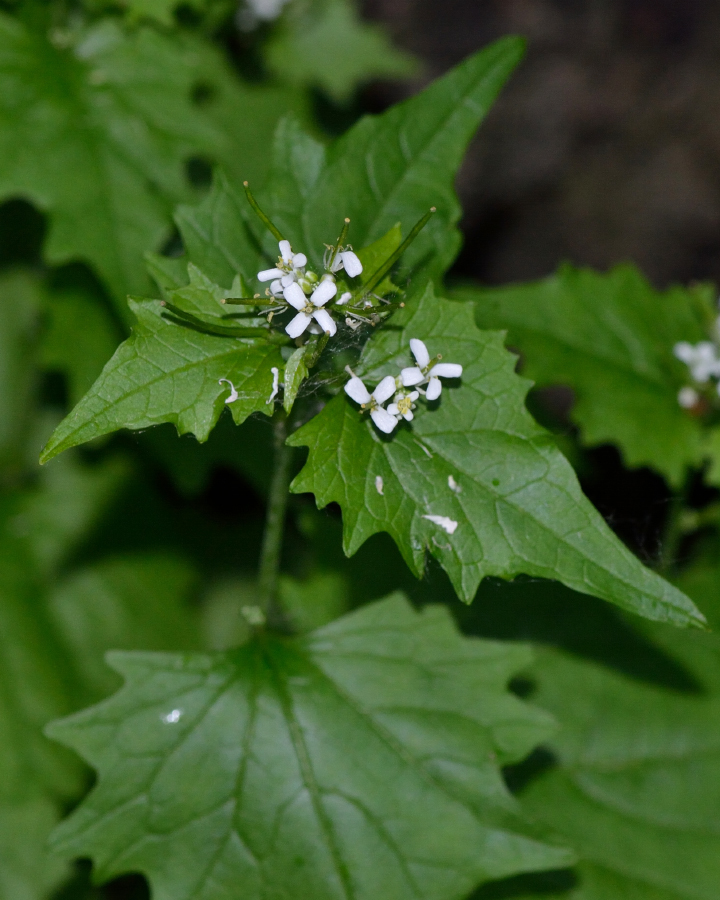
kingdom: Plantae
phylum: Tracheophyta
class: Magnoliopsida
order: Brassicales
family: Brassicaceae
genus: Alliaria
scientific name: Alliaria petiolata
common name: Garlic mustard
